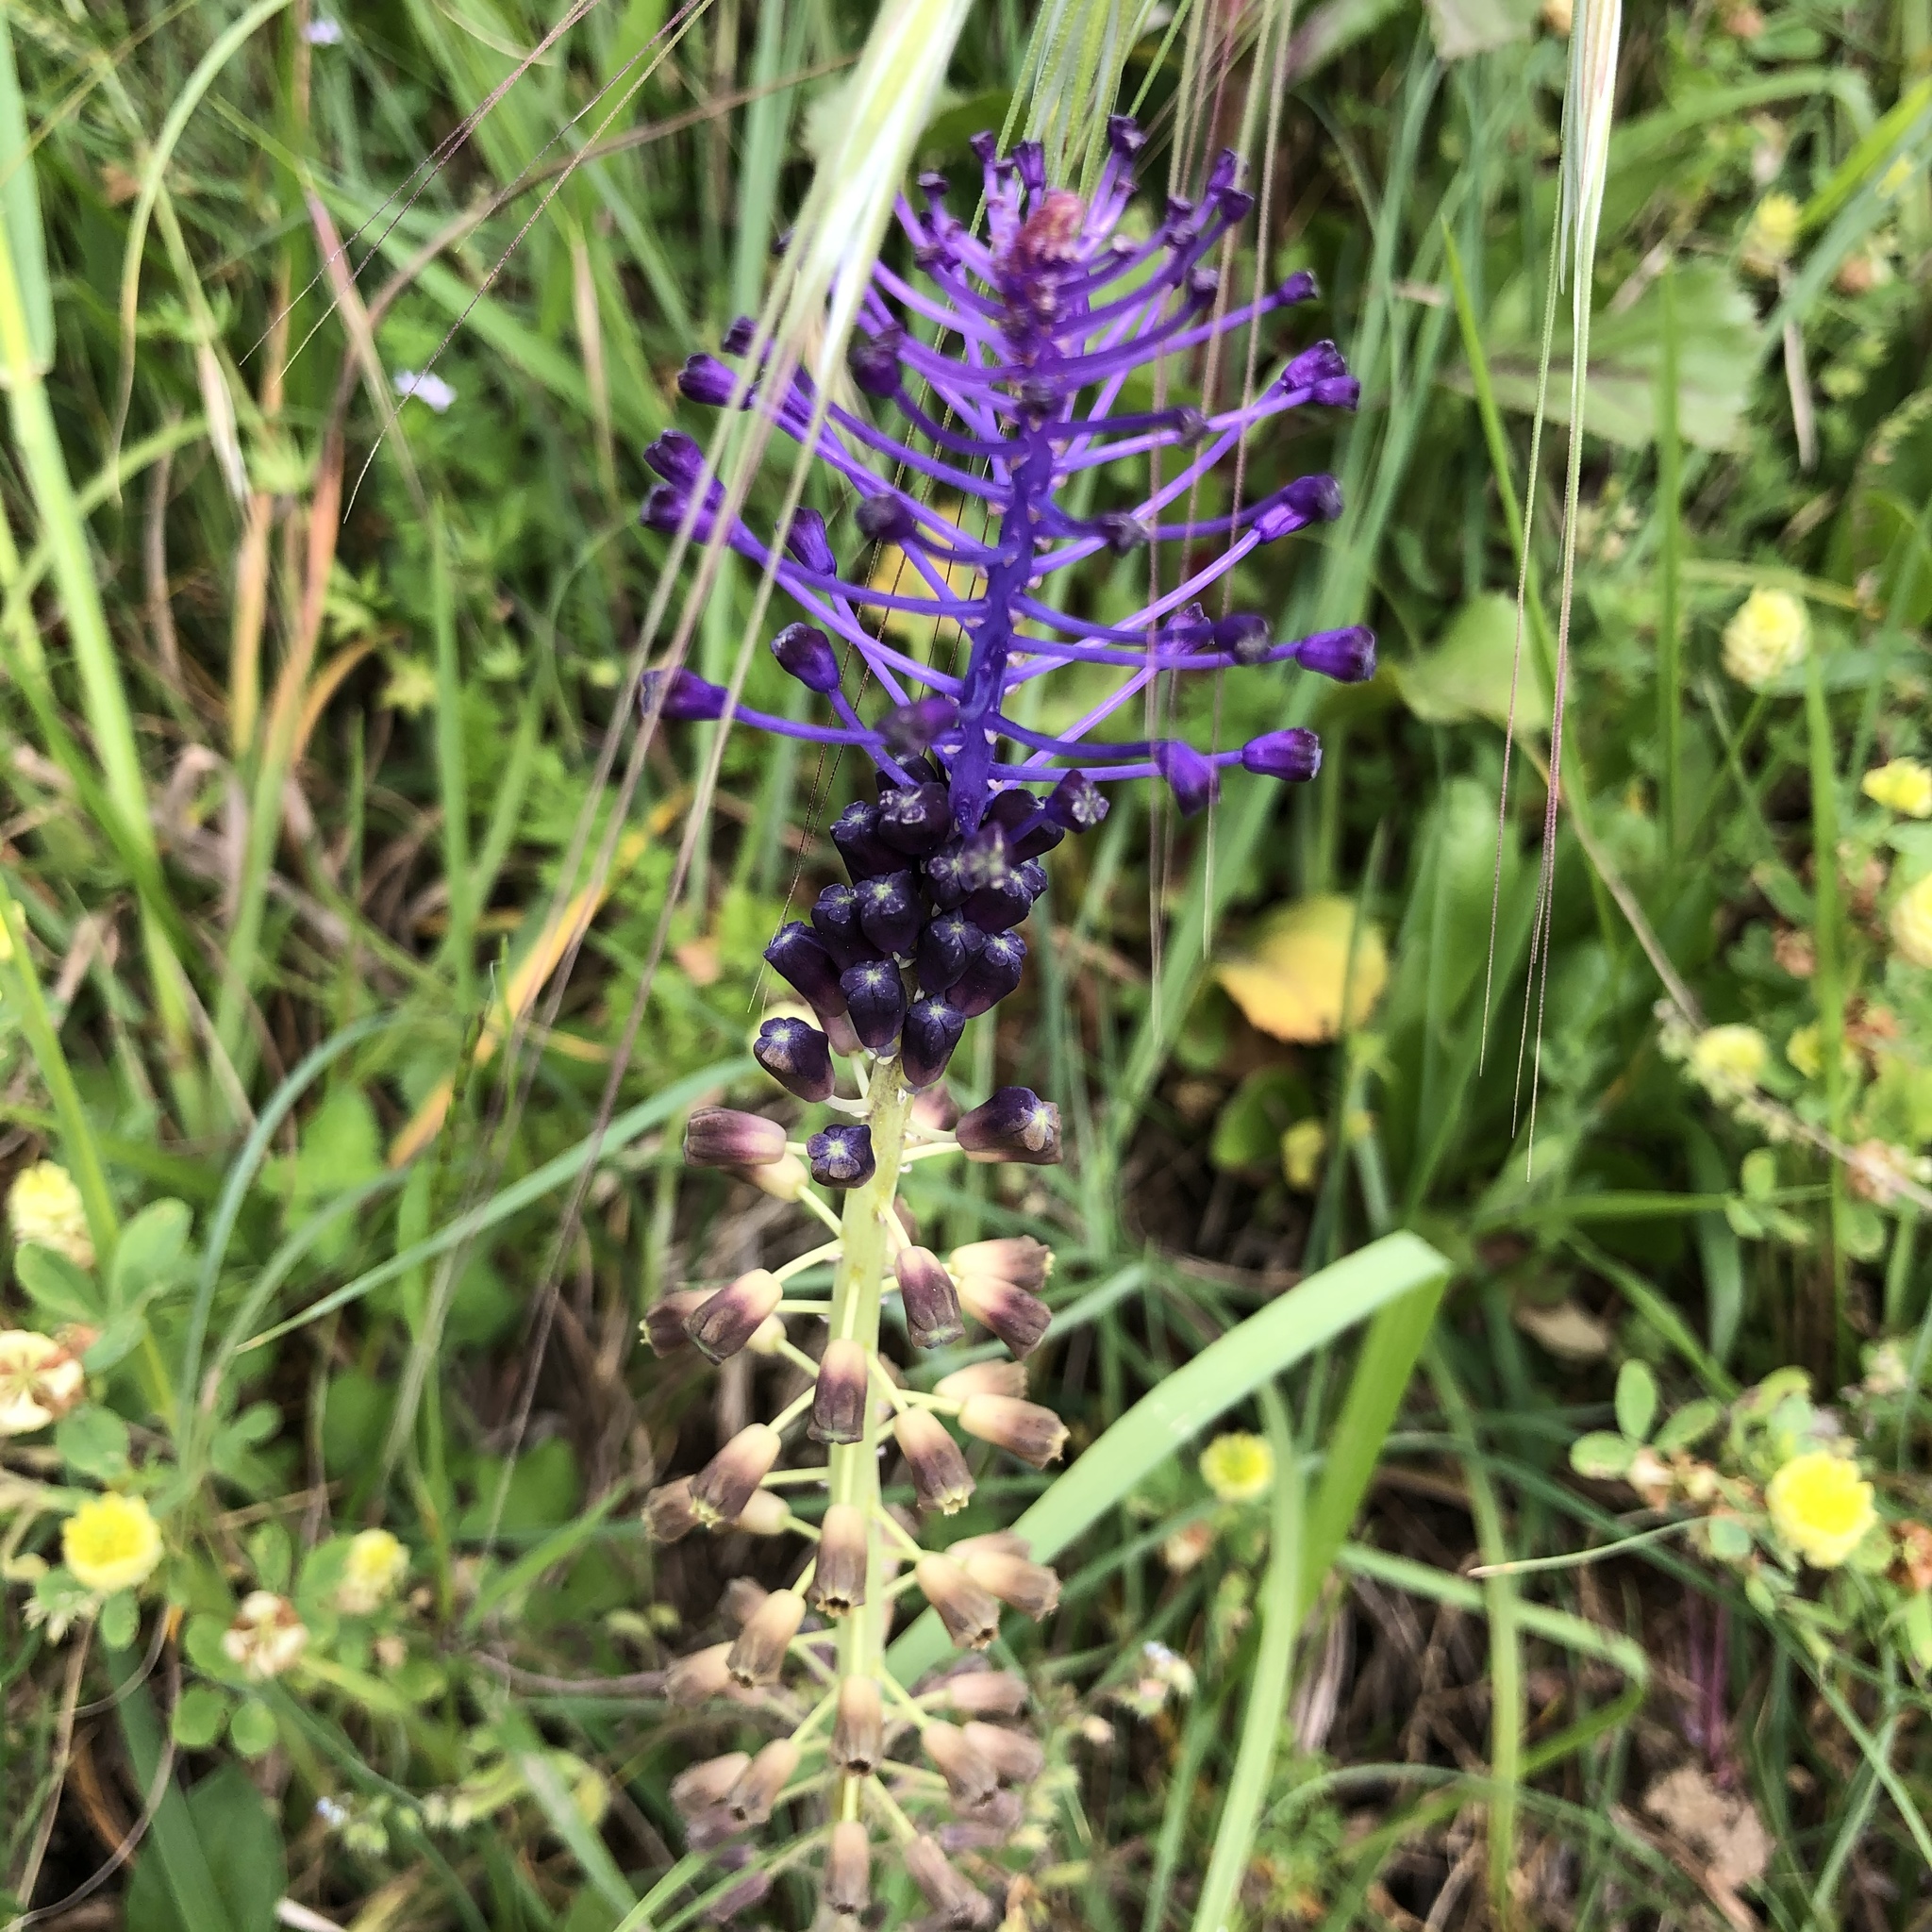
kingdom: Plantae
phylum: Tracheophyta
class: Liliopsida
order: Asparagales
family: Asparagaceae
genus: Muscari
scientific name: Muscari comosum
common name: Tassel hyacinth
